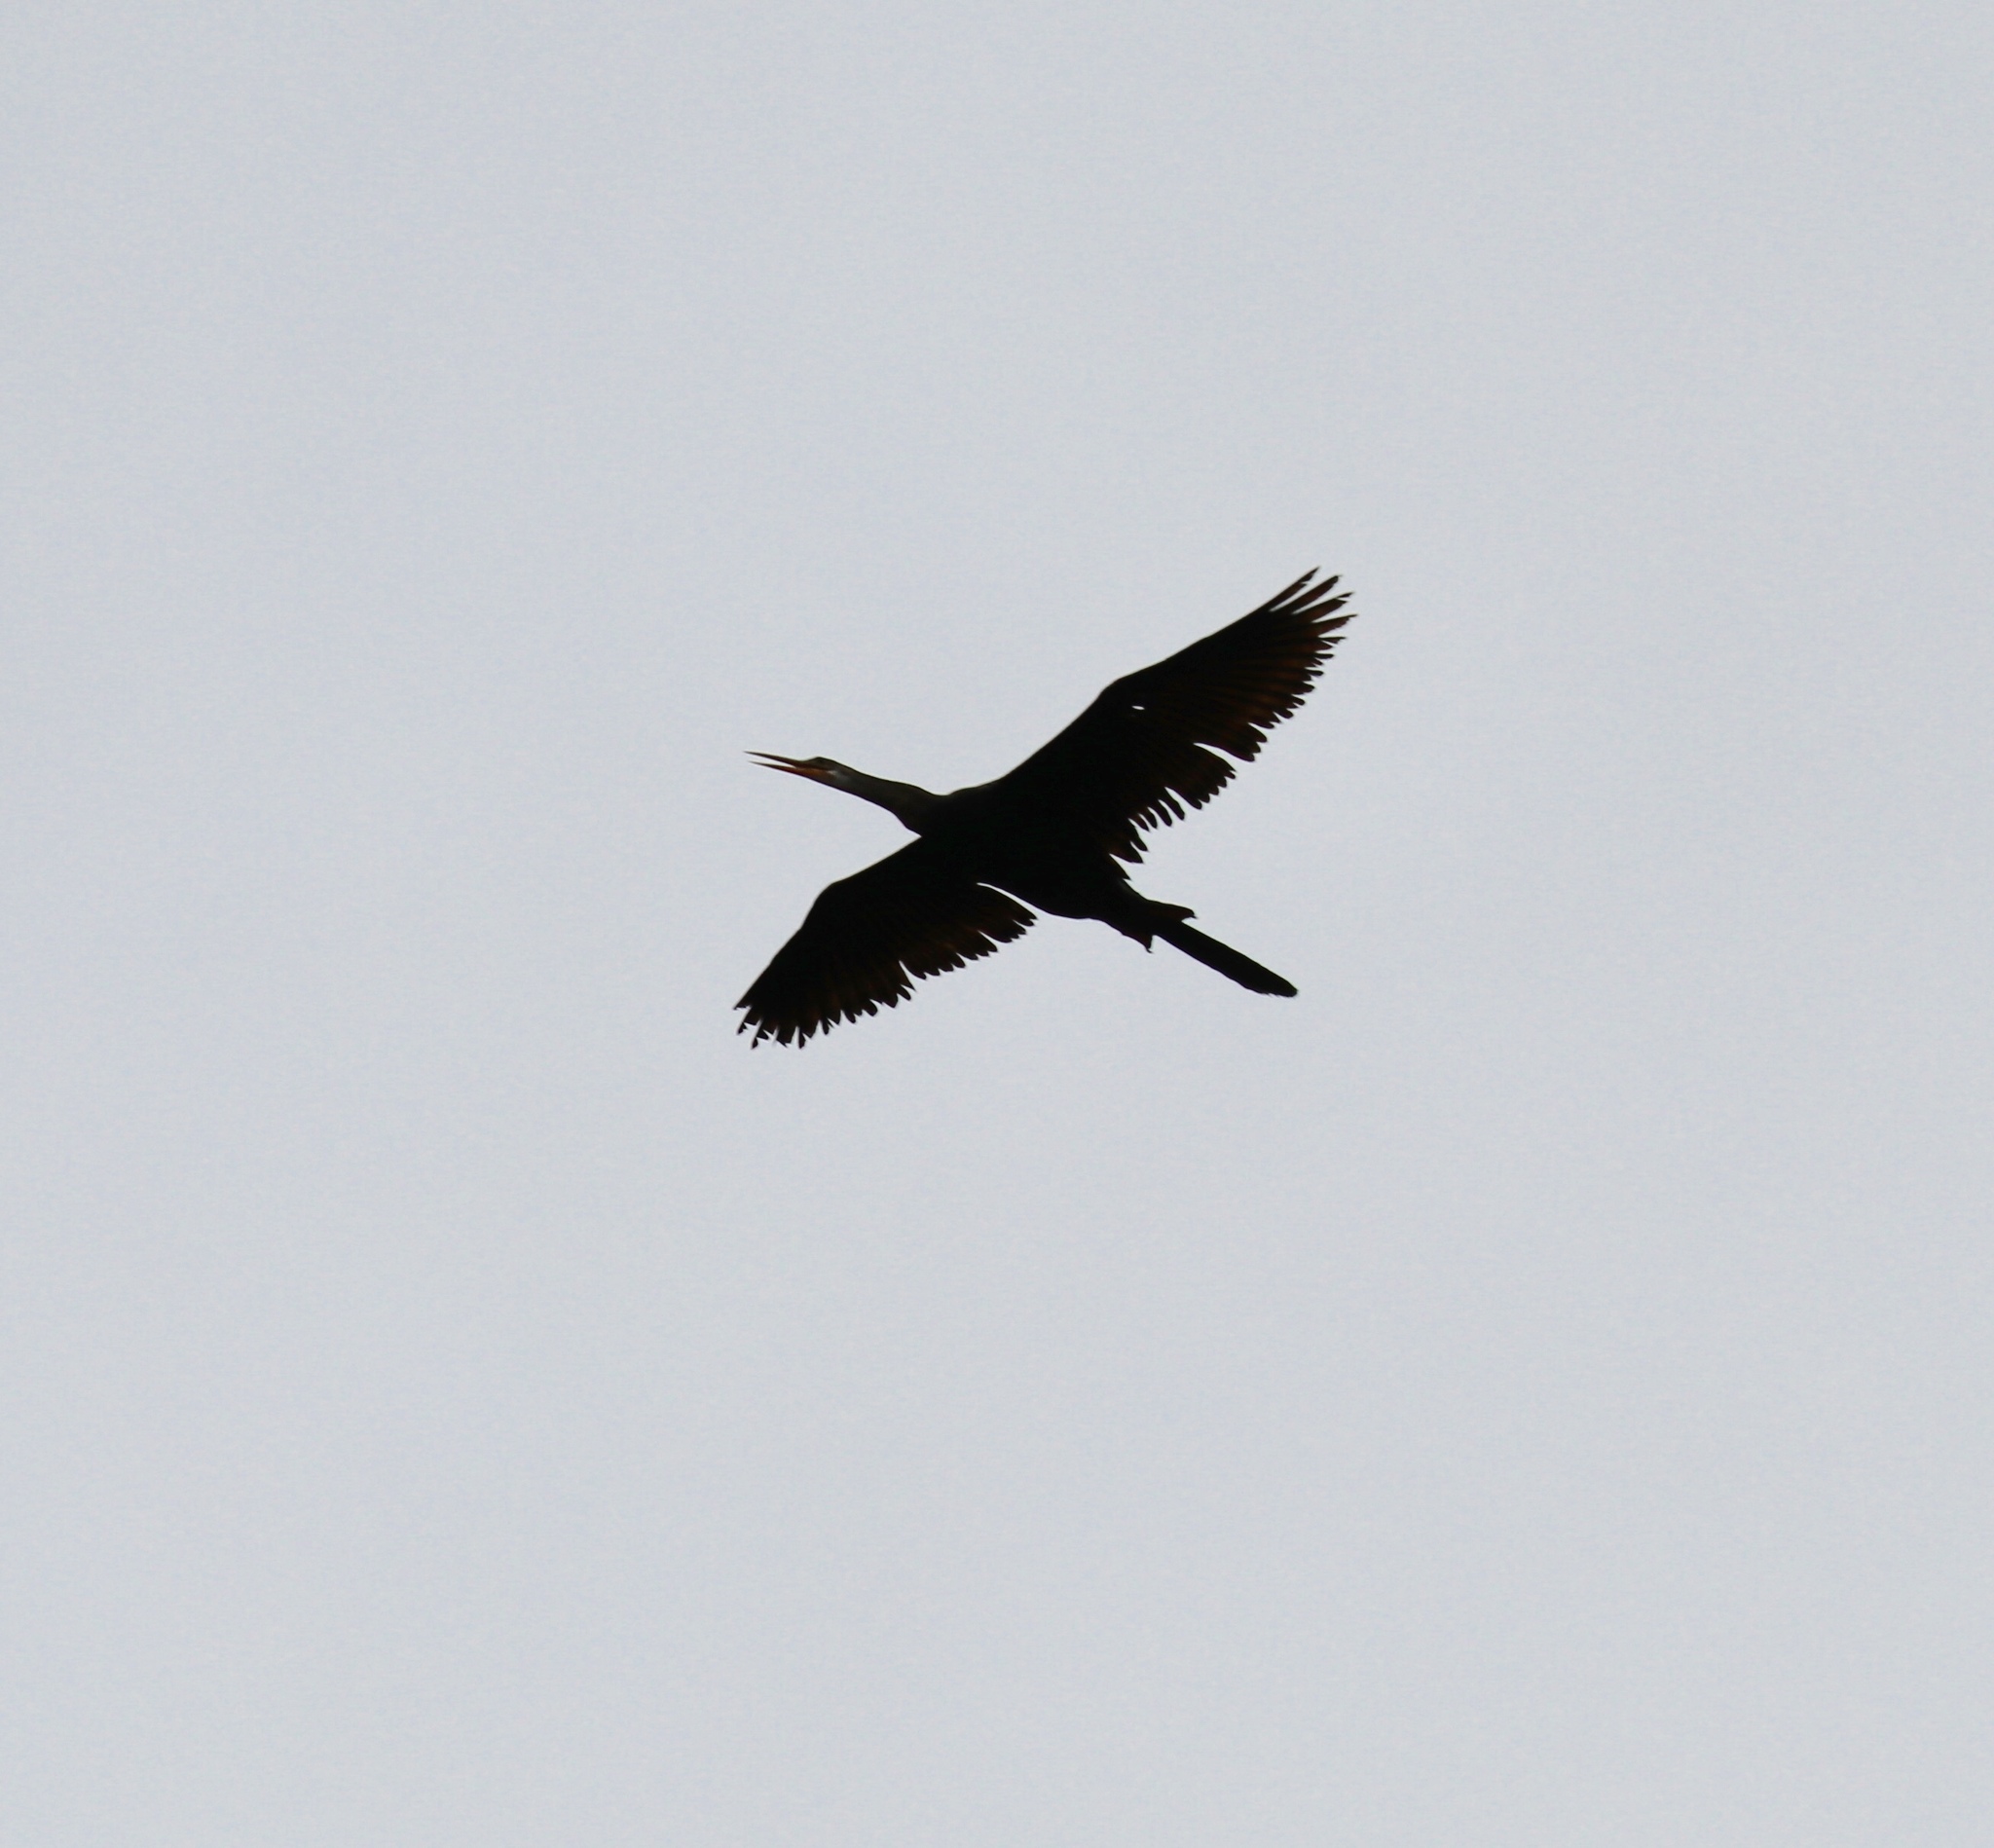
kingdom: Animalia
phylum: Chordata
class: Aves
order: Suliformes
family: Anhingidae
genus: Anhinga
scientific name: Anhinga anhinga
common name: Anhinga
